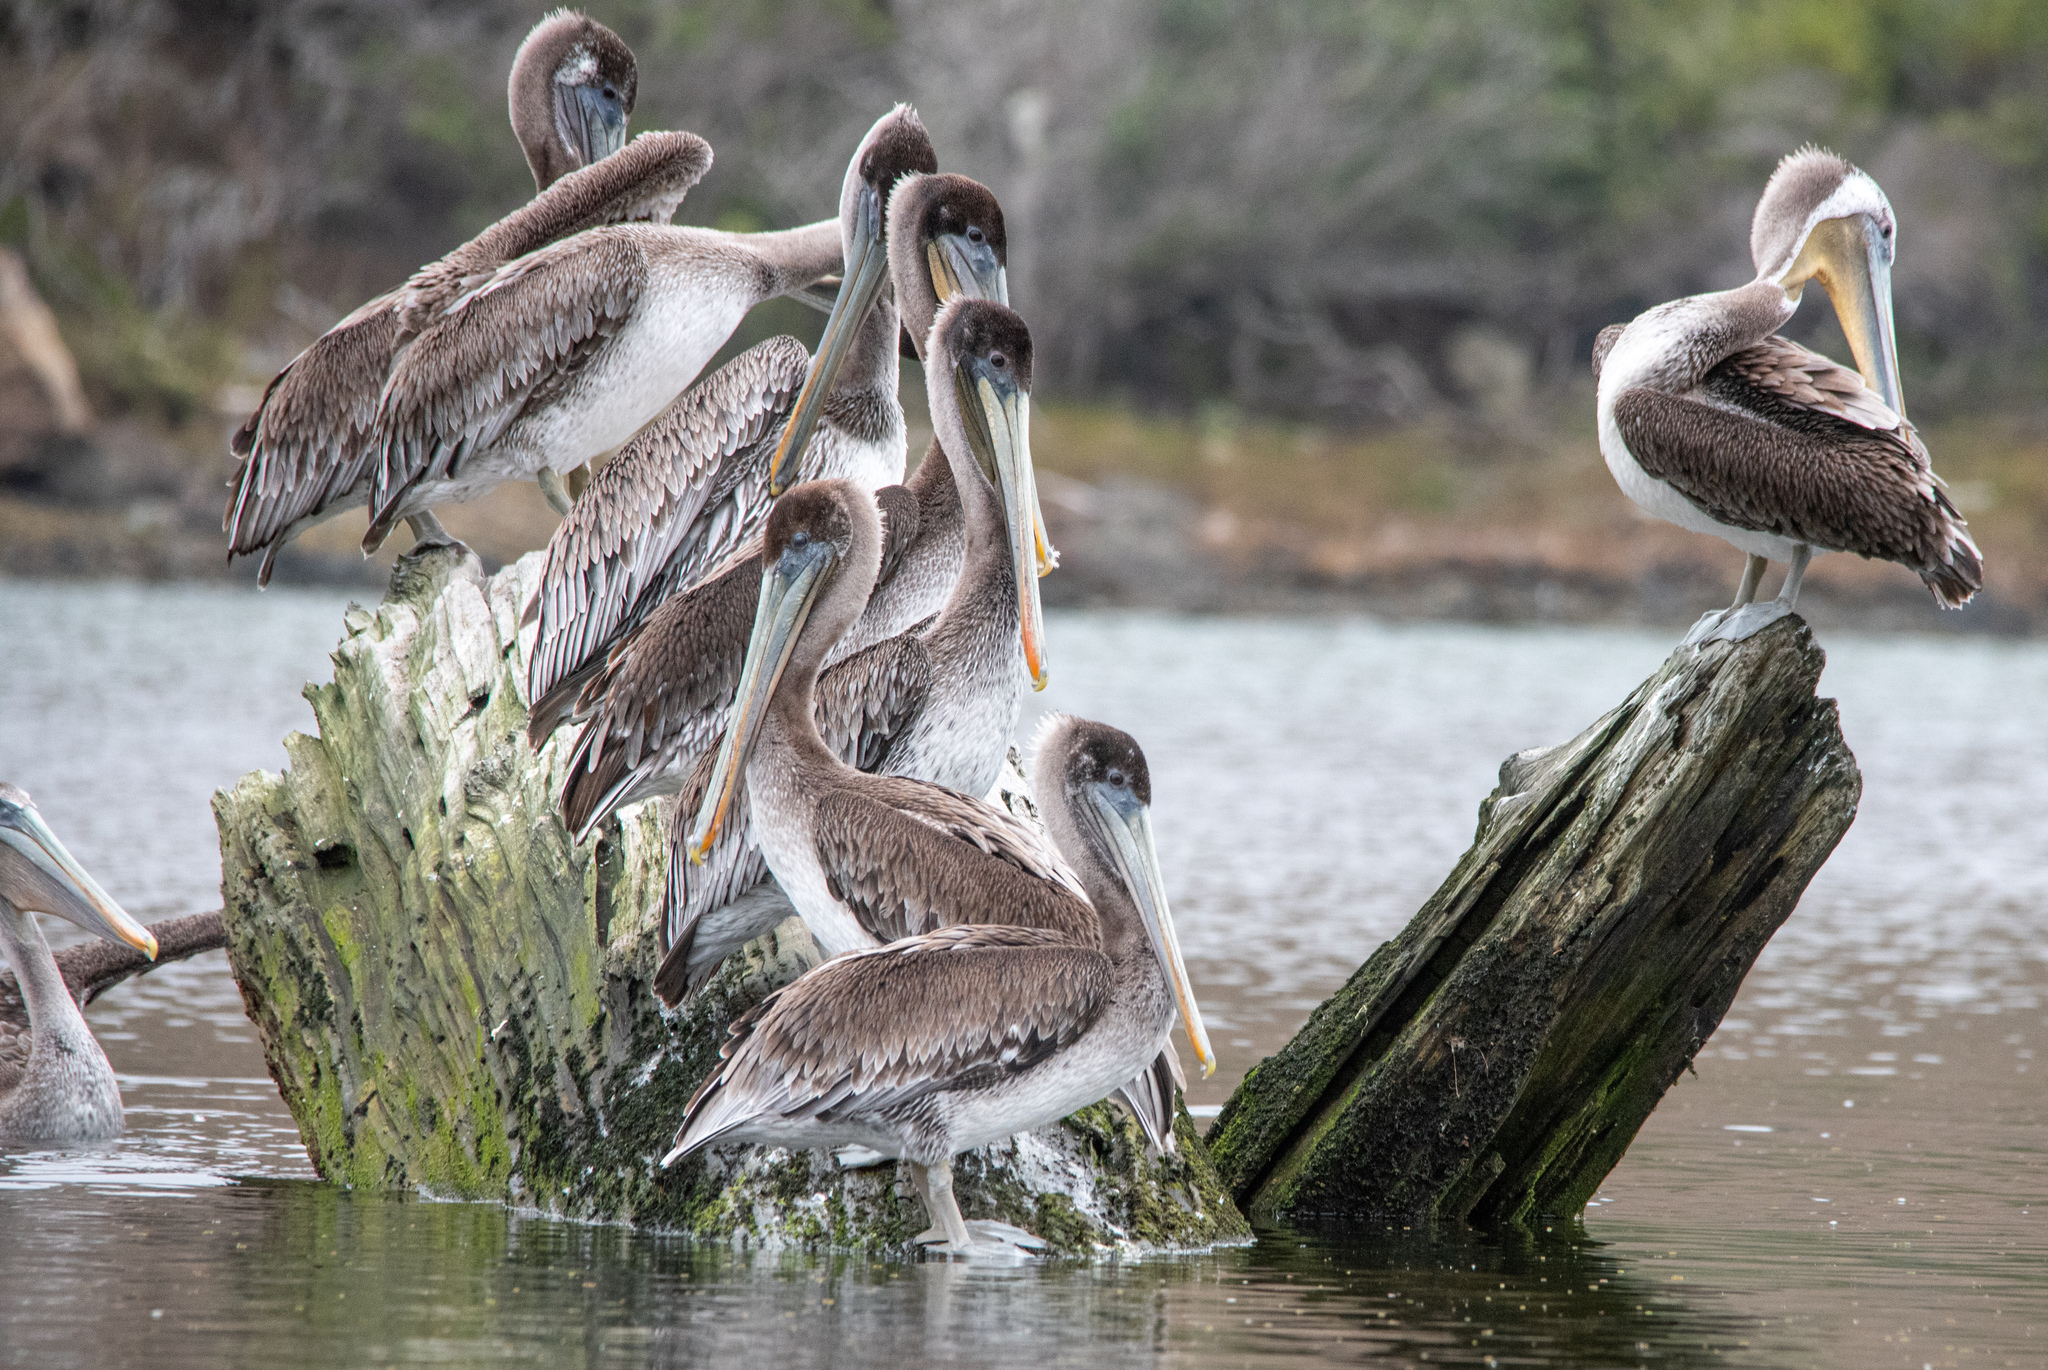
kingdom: Animalia
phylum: Chordata
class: Aves
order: Pelecaniformes
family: Pelecanidae
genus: Pelecanus
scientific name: Pelecanus occidentalis
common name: Brown pelican
